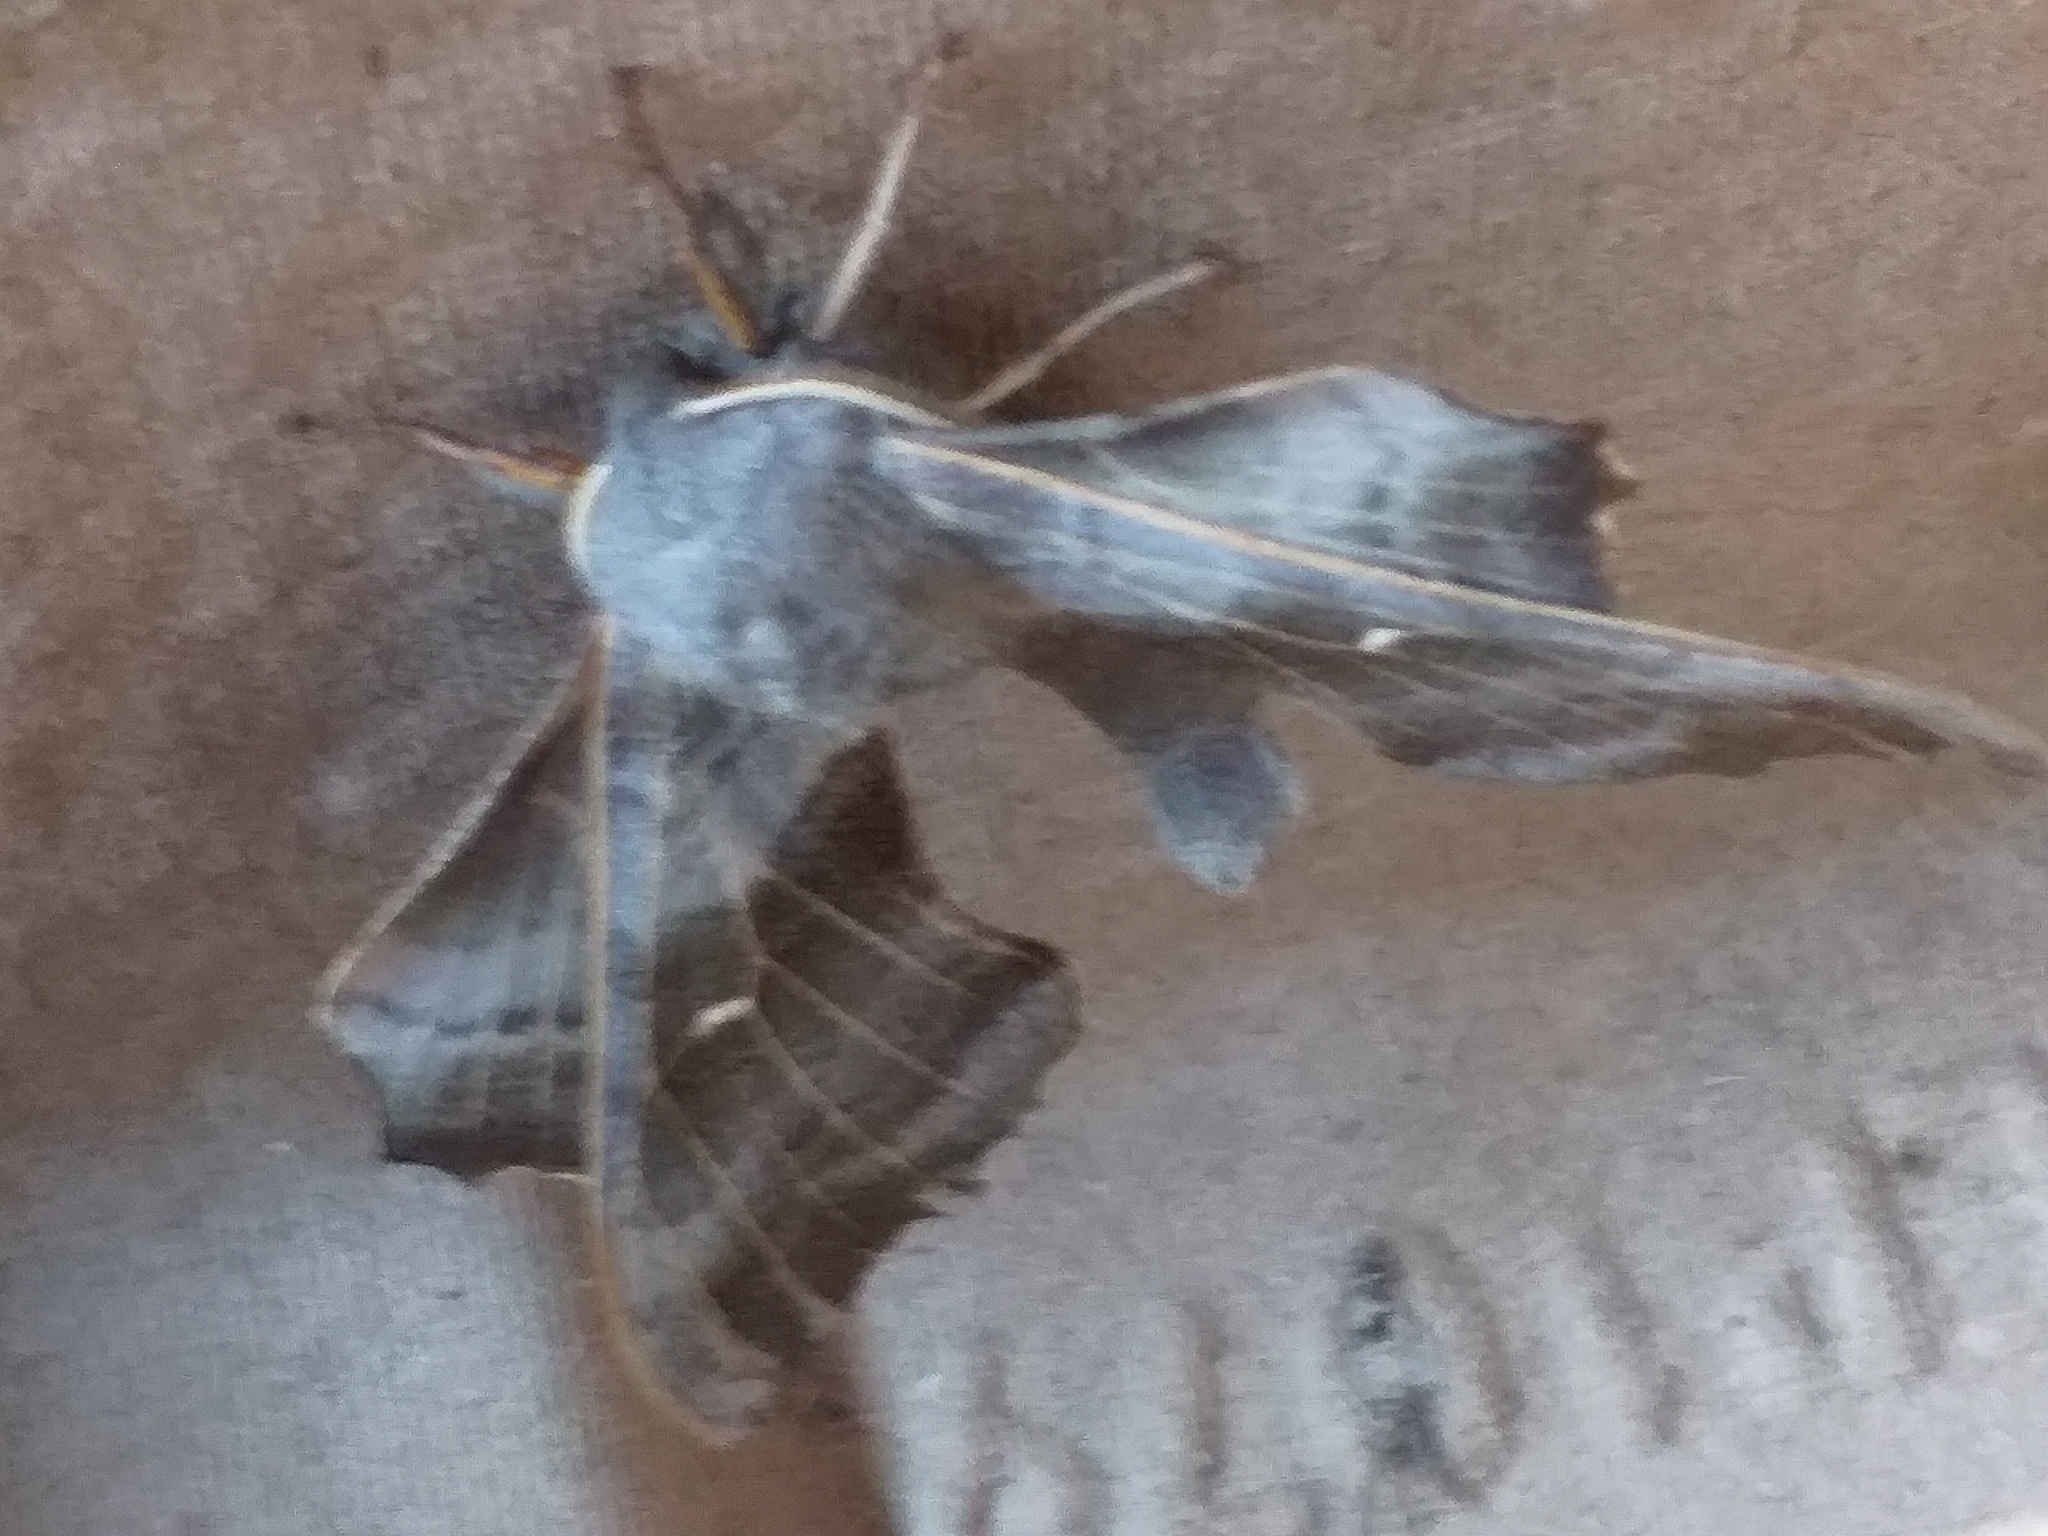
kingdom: Animalia
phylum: Arthropoda
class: Insecta
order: Lepidoptera
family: Sphingidae
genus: Laothoe
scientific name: Laothoe populi
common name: Poplar hawk-moth
